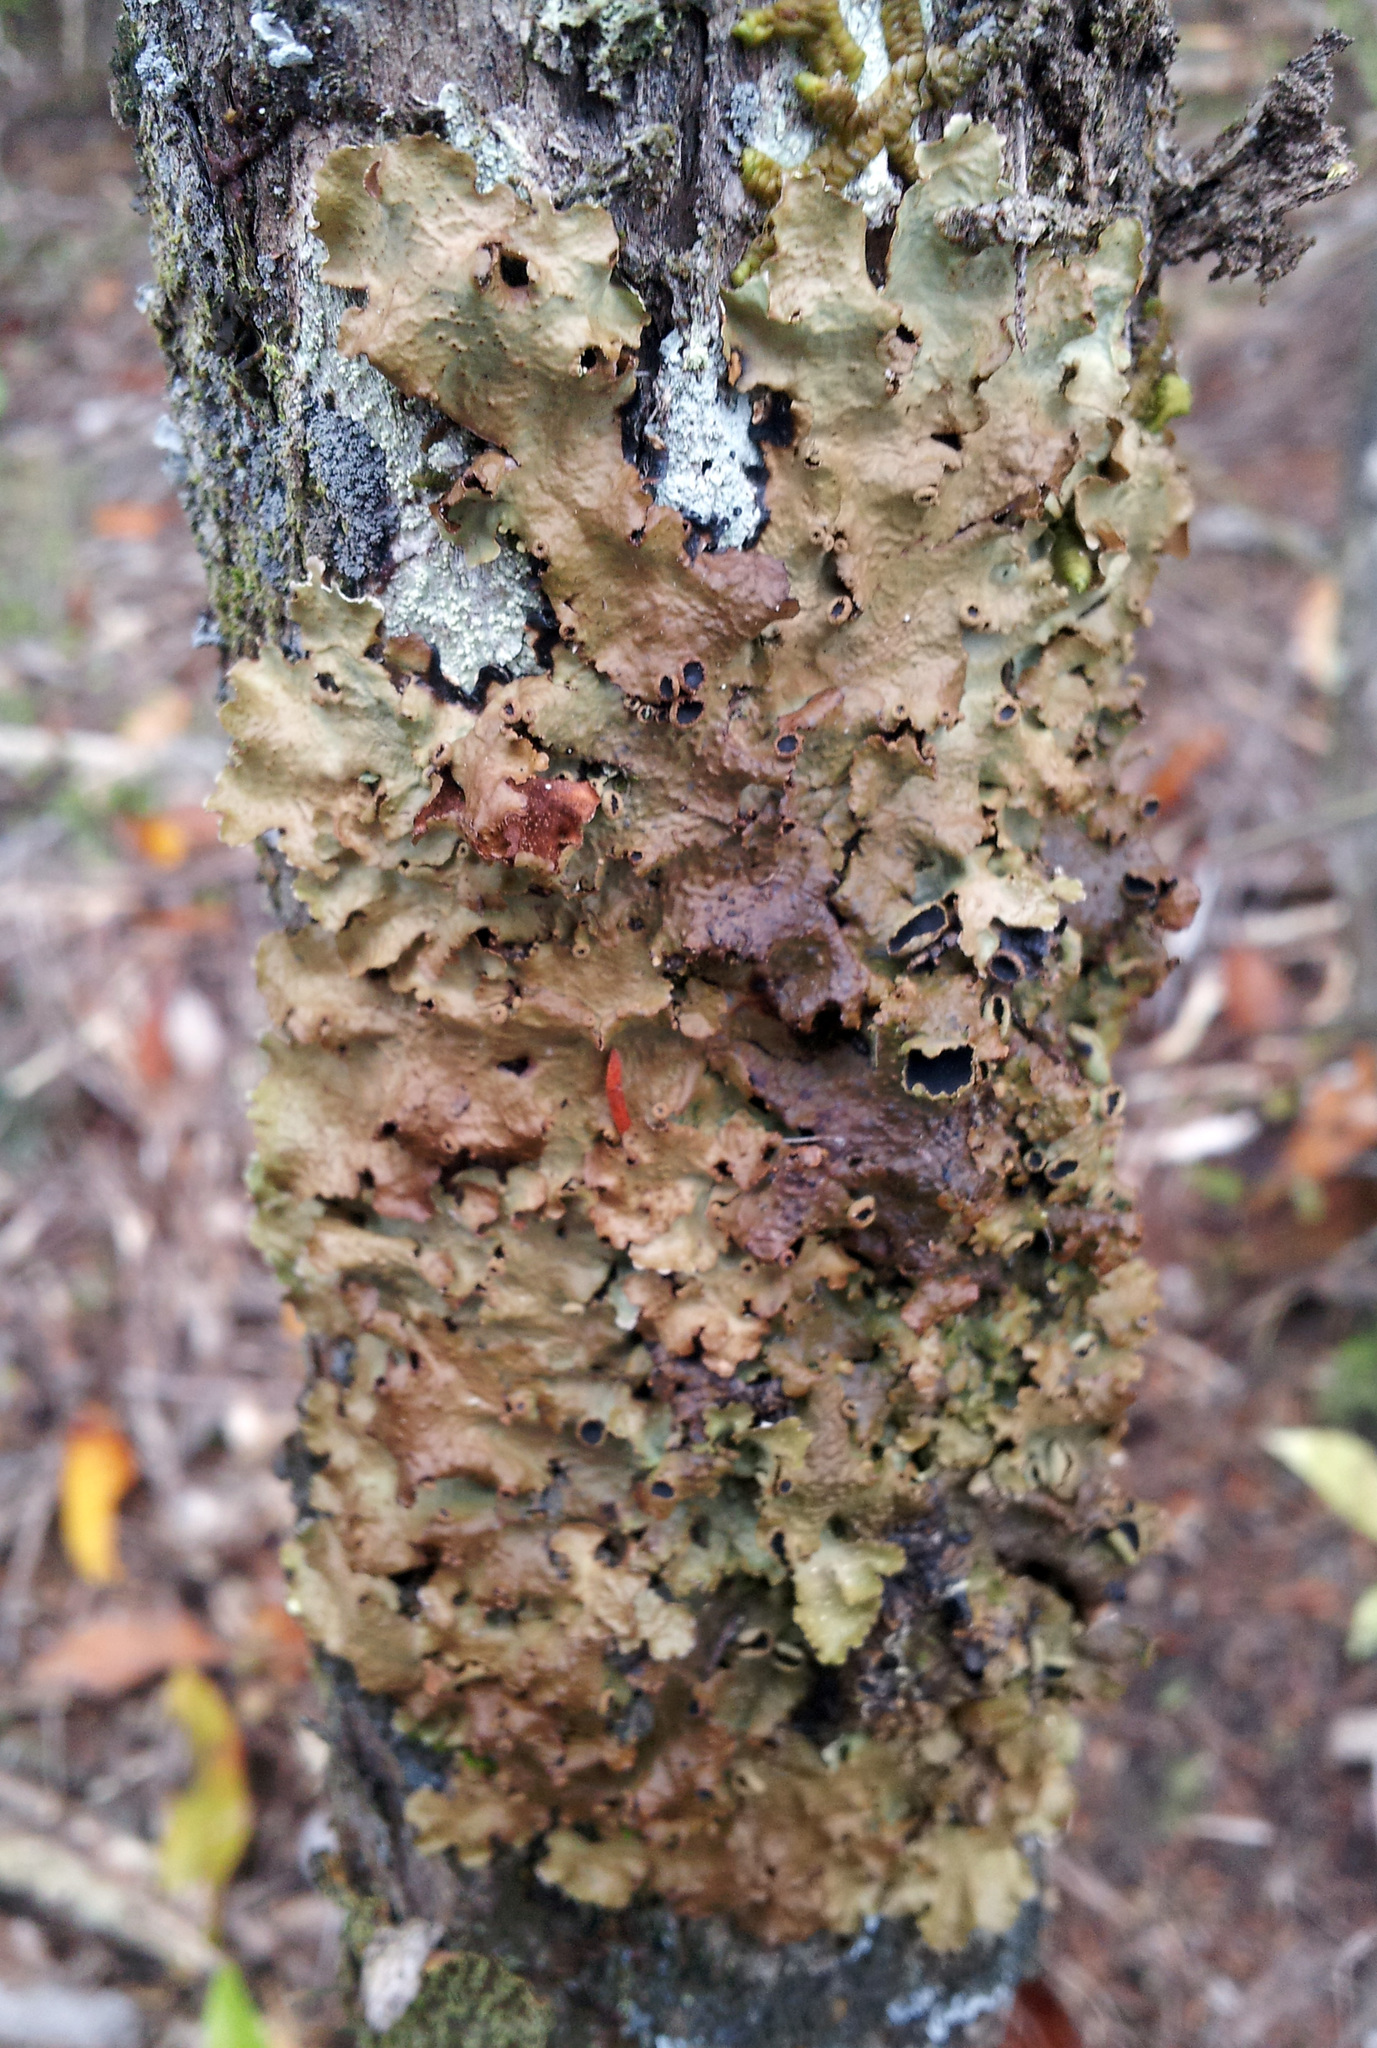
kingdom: Fungi
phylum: Ascomycota
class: Lecanoromycetes
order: Peltigerales
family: Lobariaceae
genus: Pseudocyphellaria
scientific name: Pseudocyphellaria montagnei
